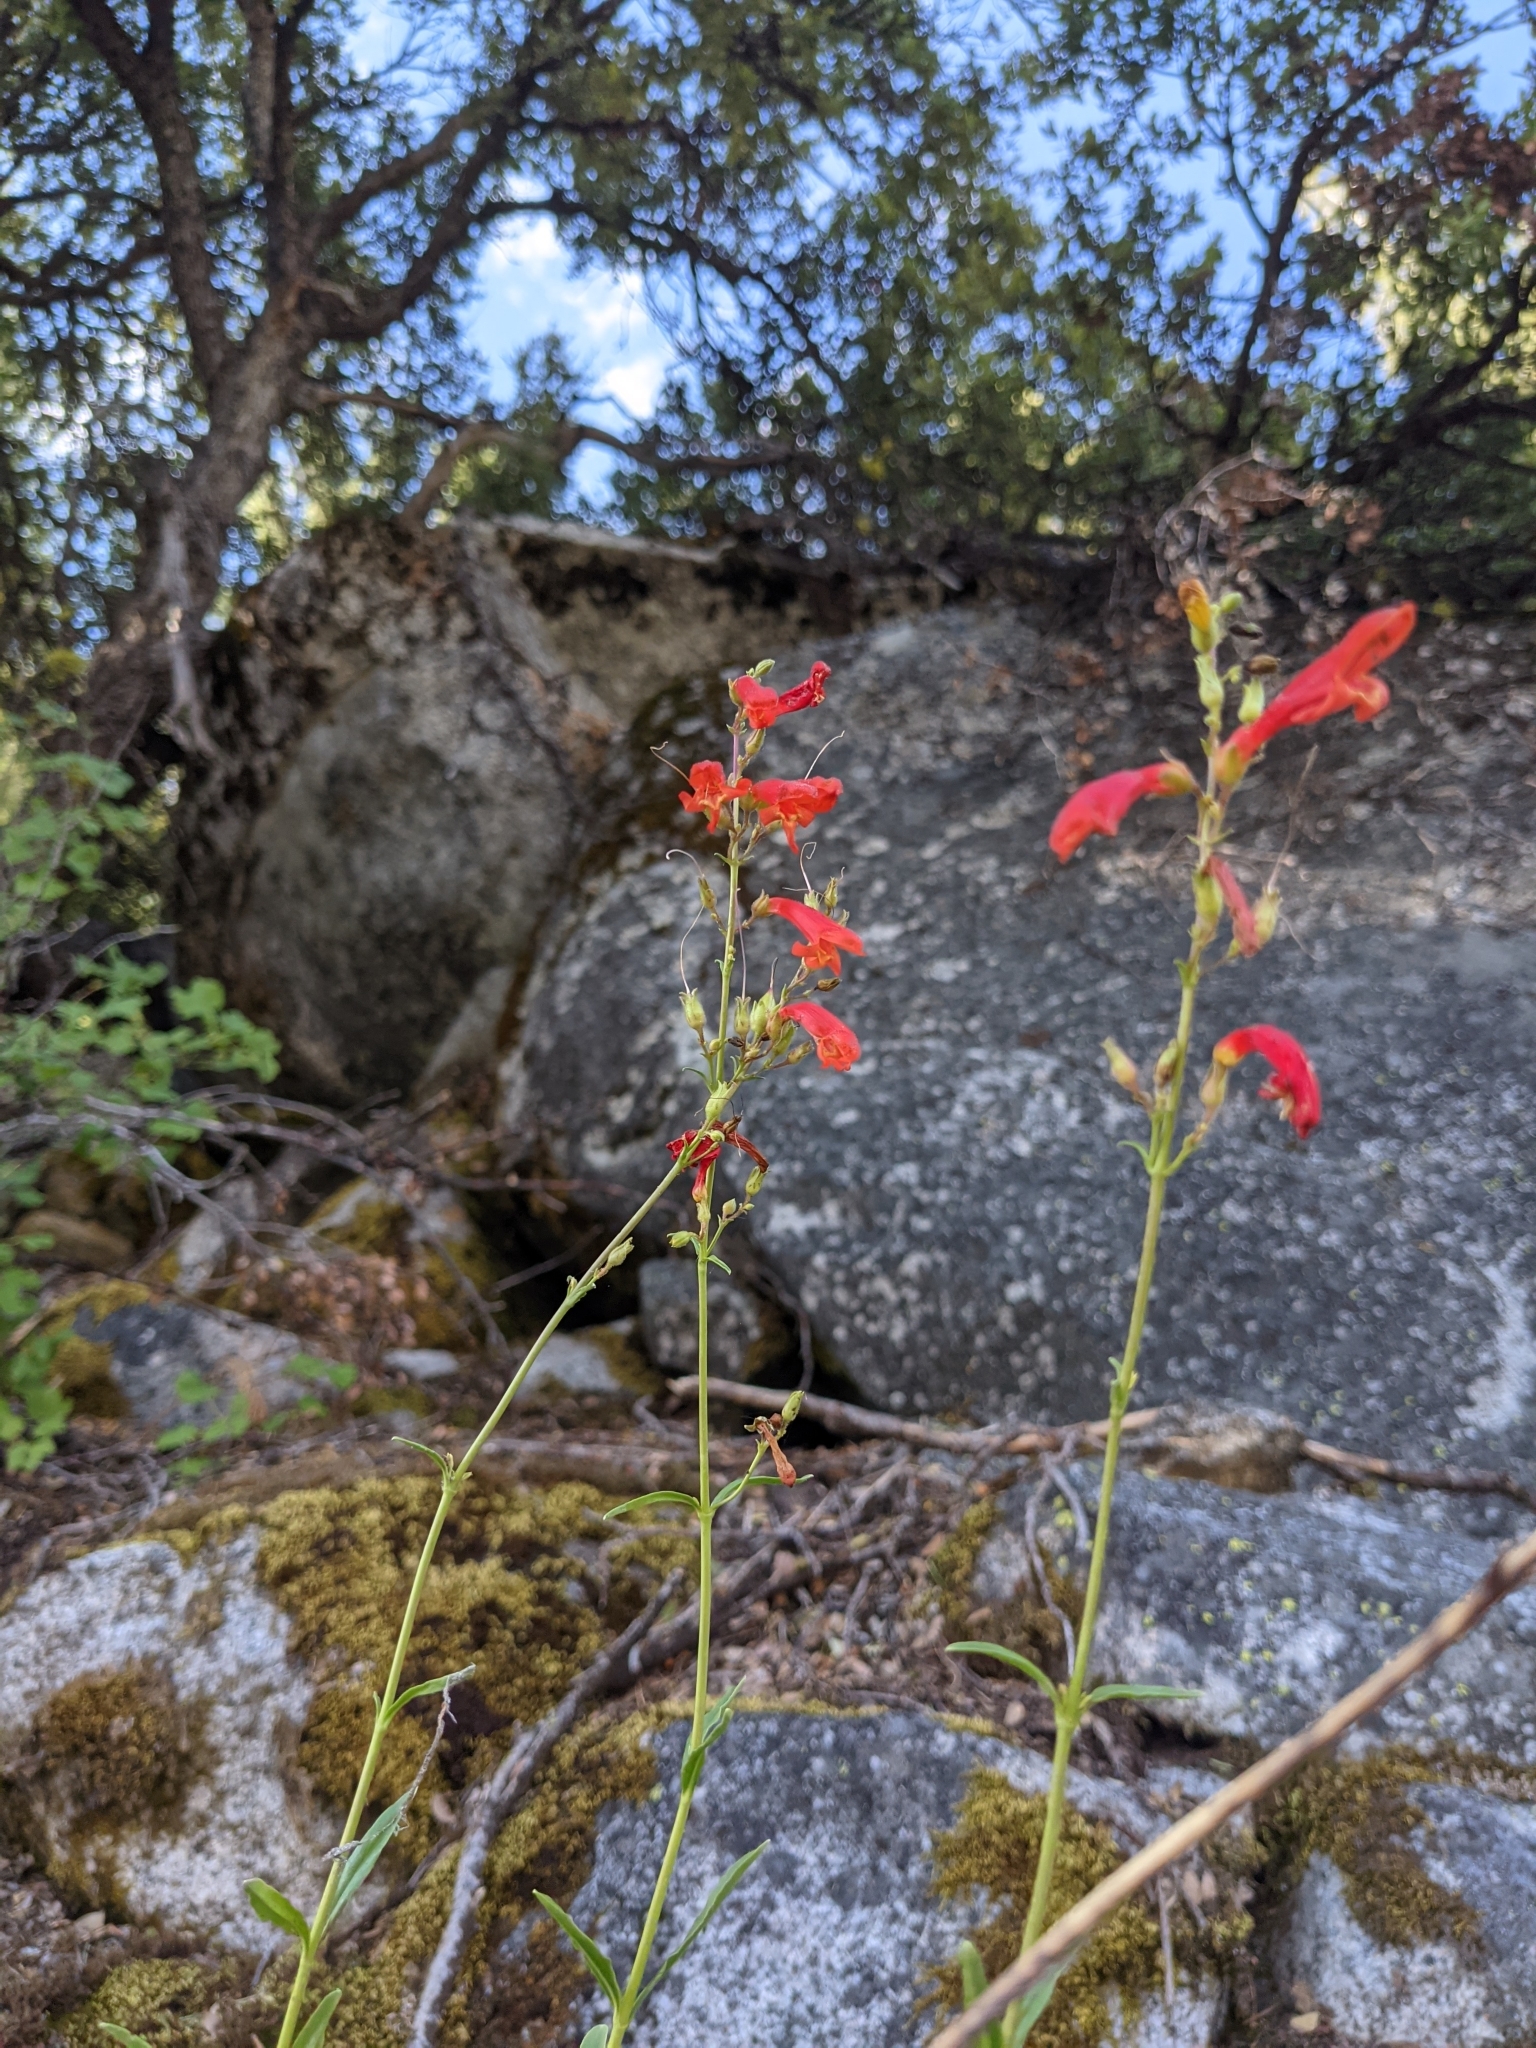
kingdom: Plantae
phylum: Tracheophyta
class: Magnoliopsida
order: Lamiales
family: Plantaginaceae
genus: Penstemon
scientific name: Penstemon rostriflorus
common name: Bridges's penstemon
